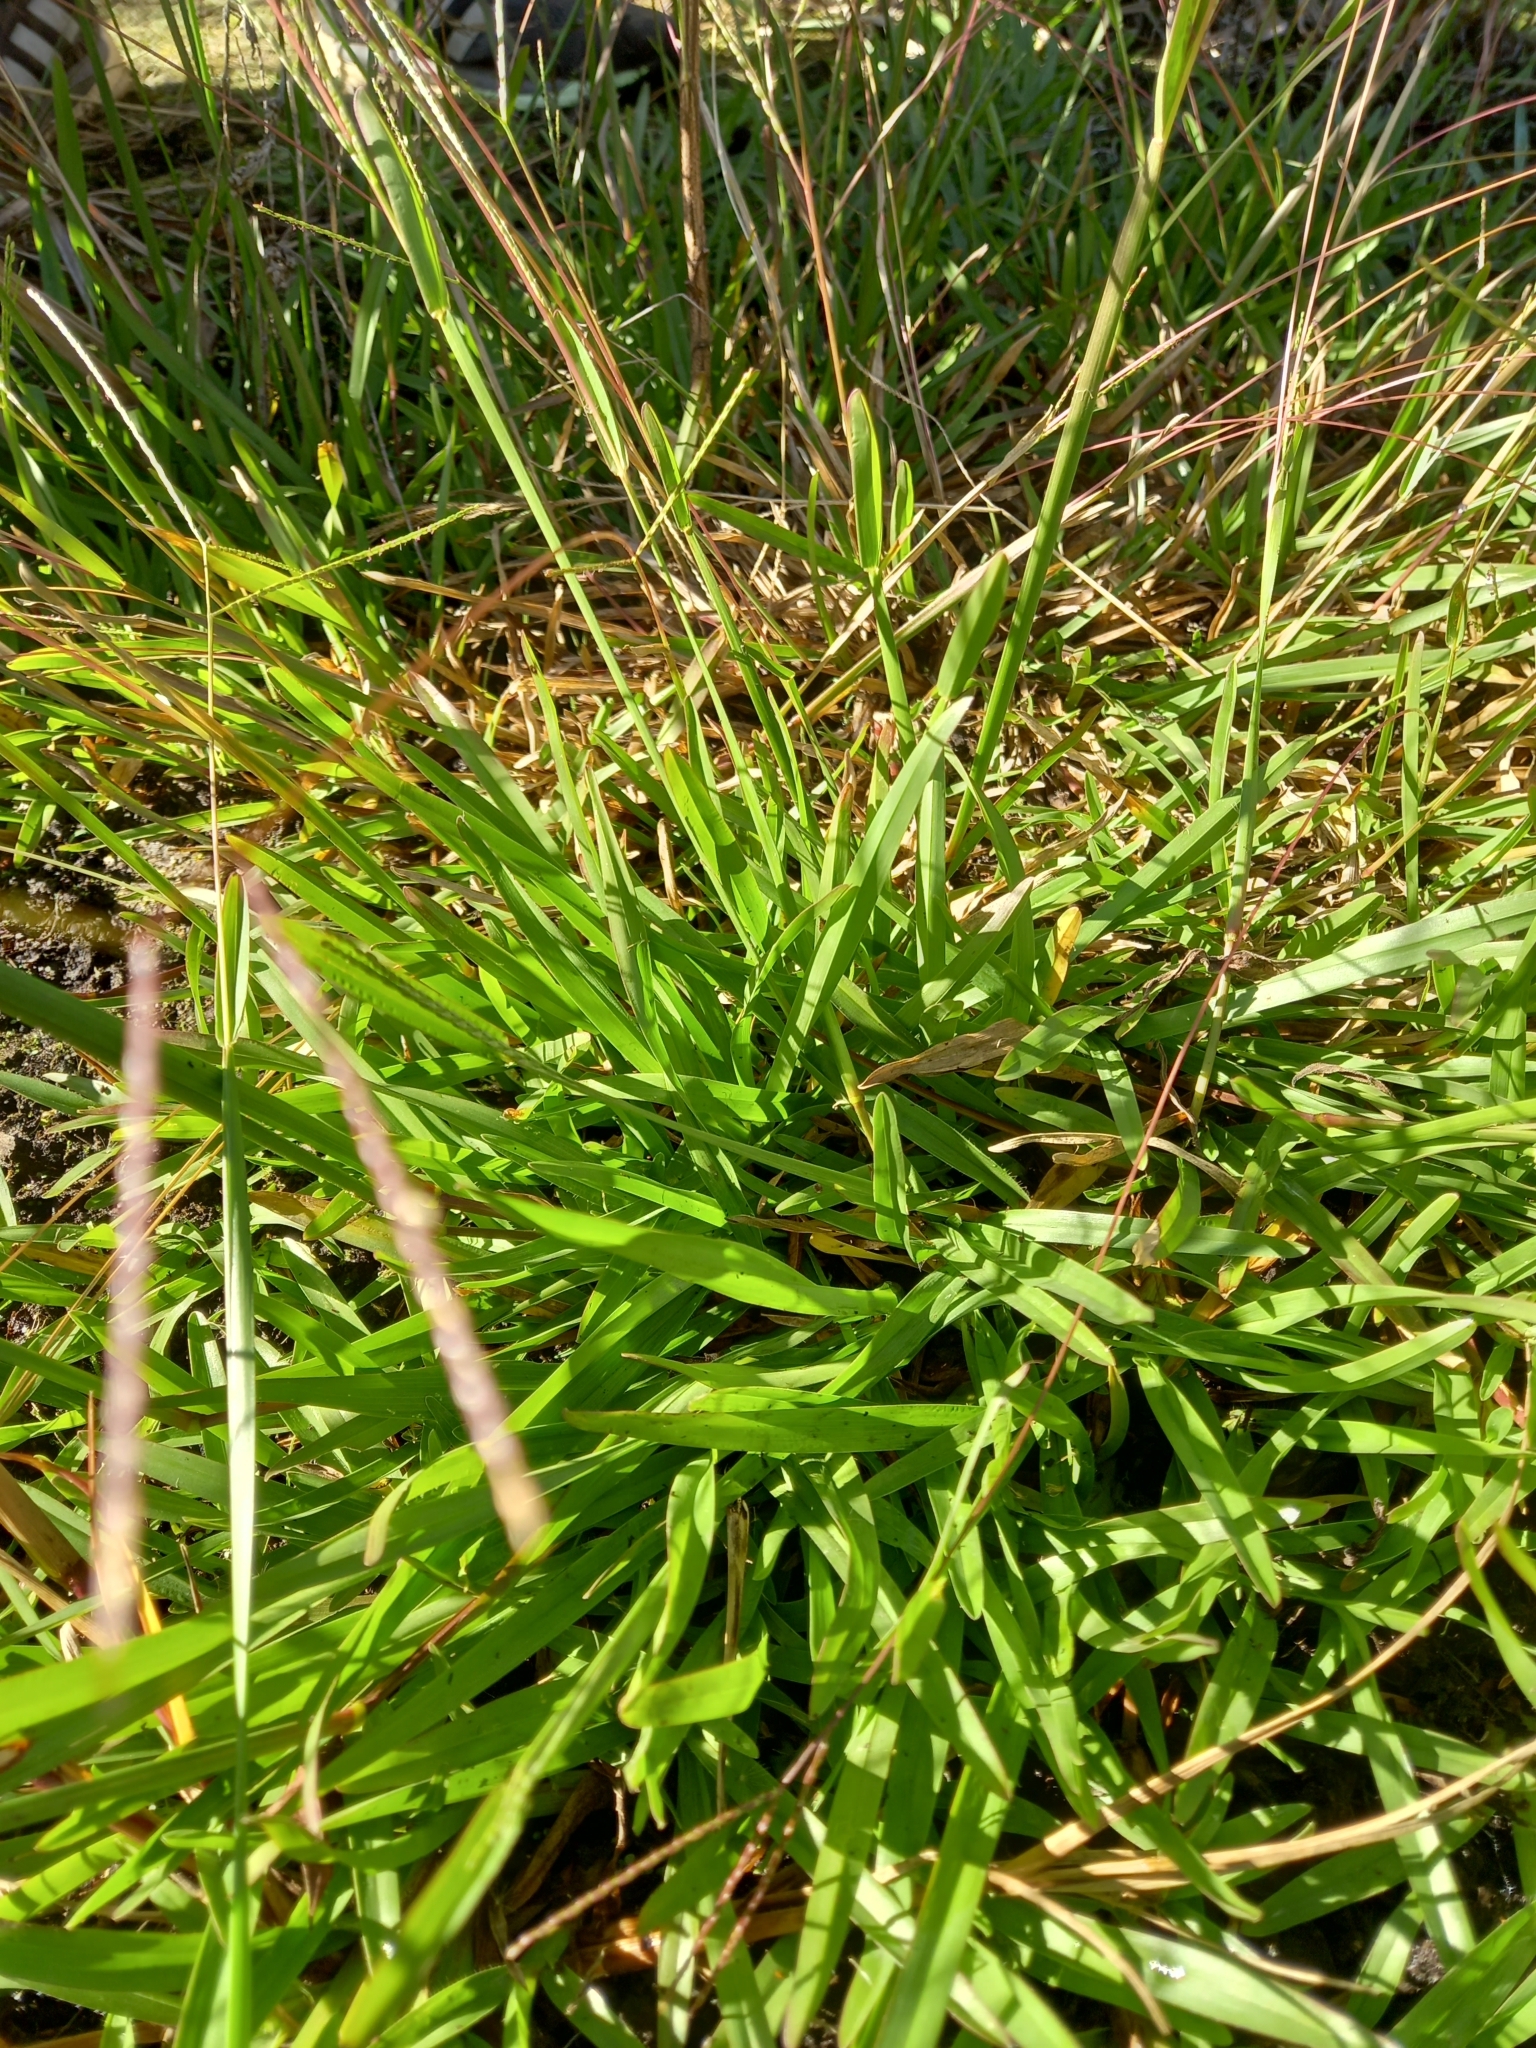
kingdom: Plantae
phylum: Tracheophyta
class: Liliopsida
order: Poales
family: Poaceae
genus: Axonopus
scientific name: Axonopus fissifolius
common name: Common carpetgrass
